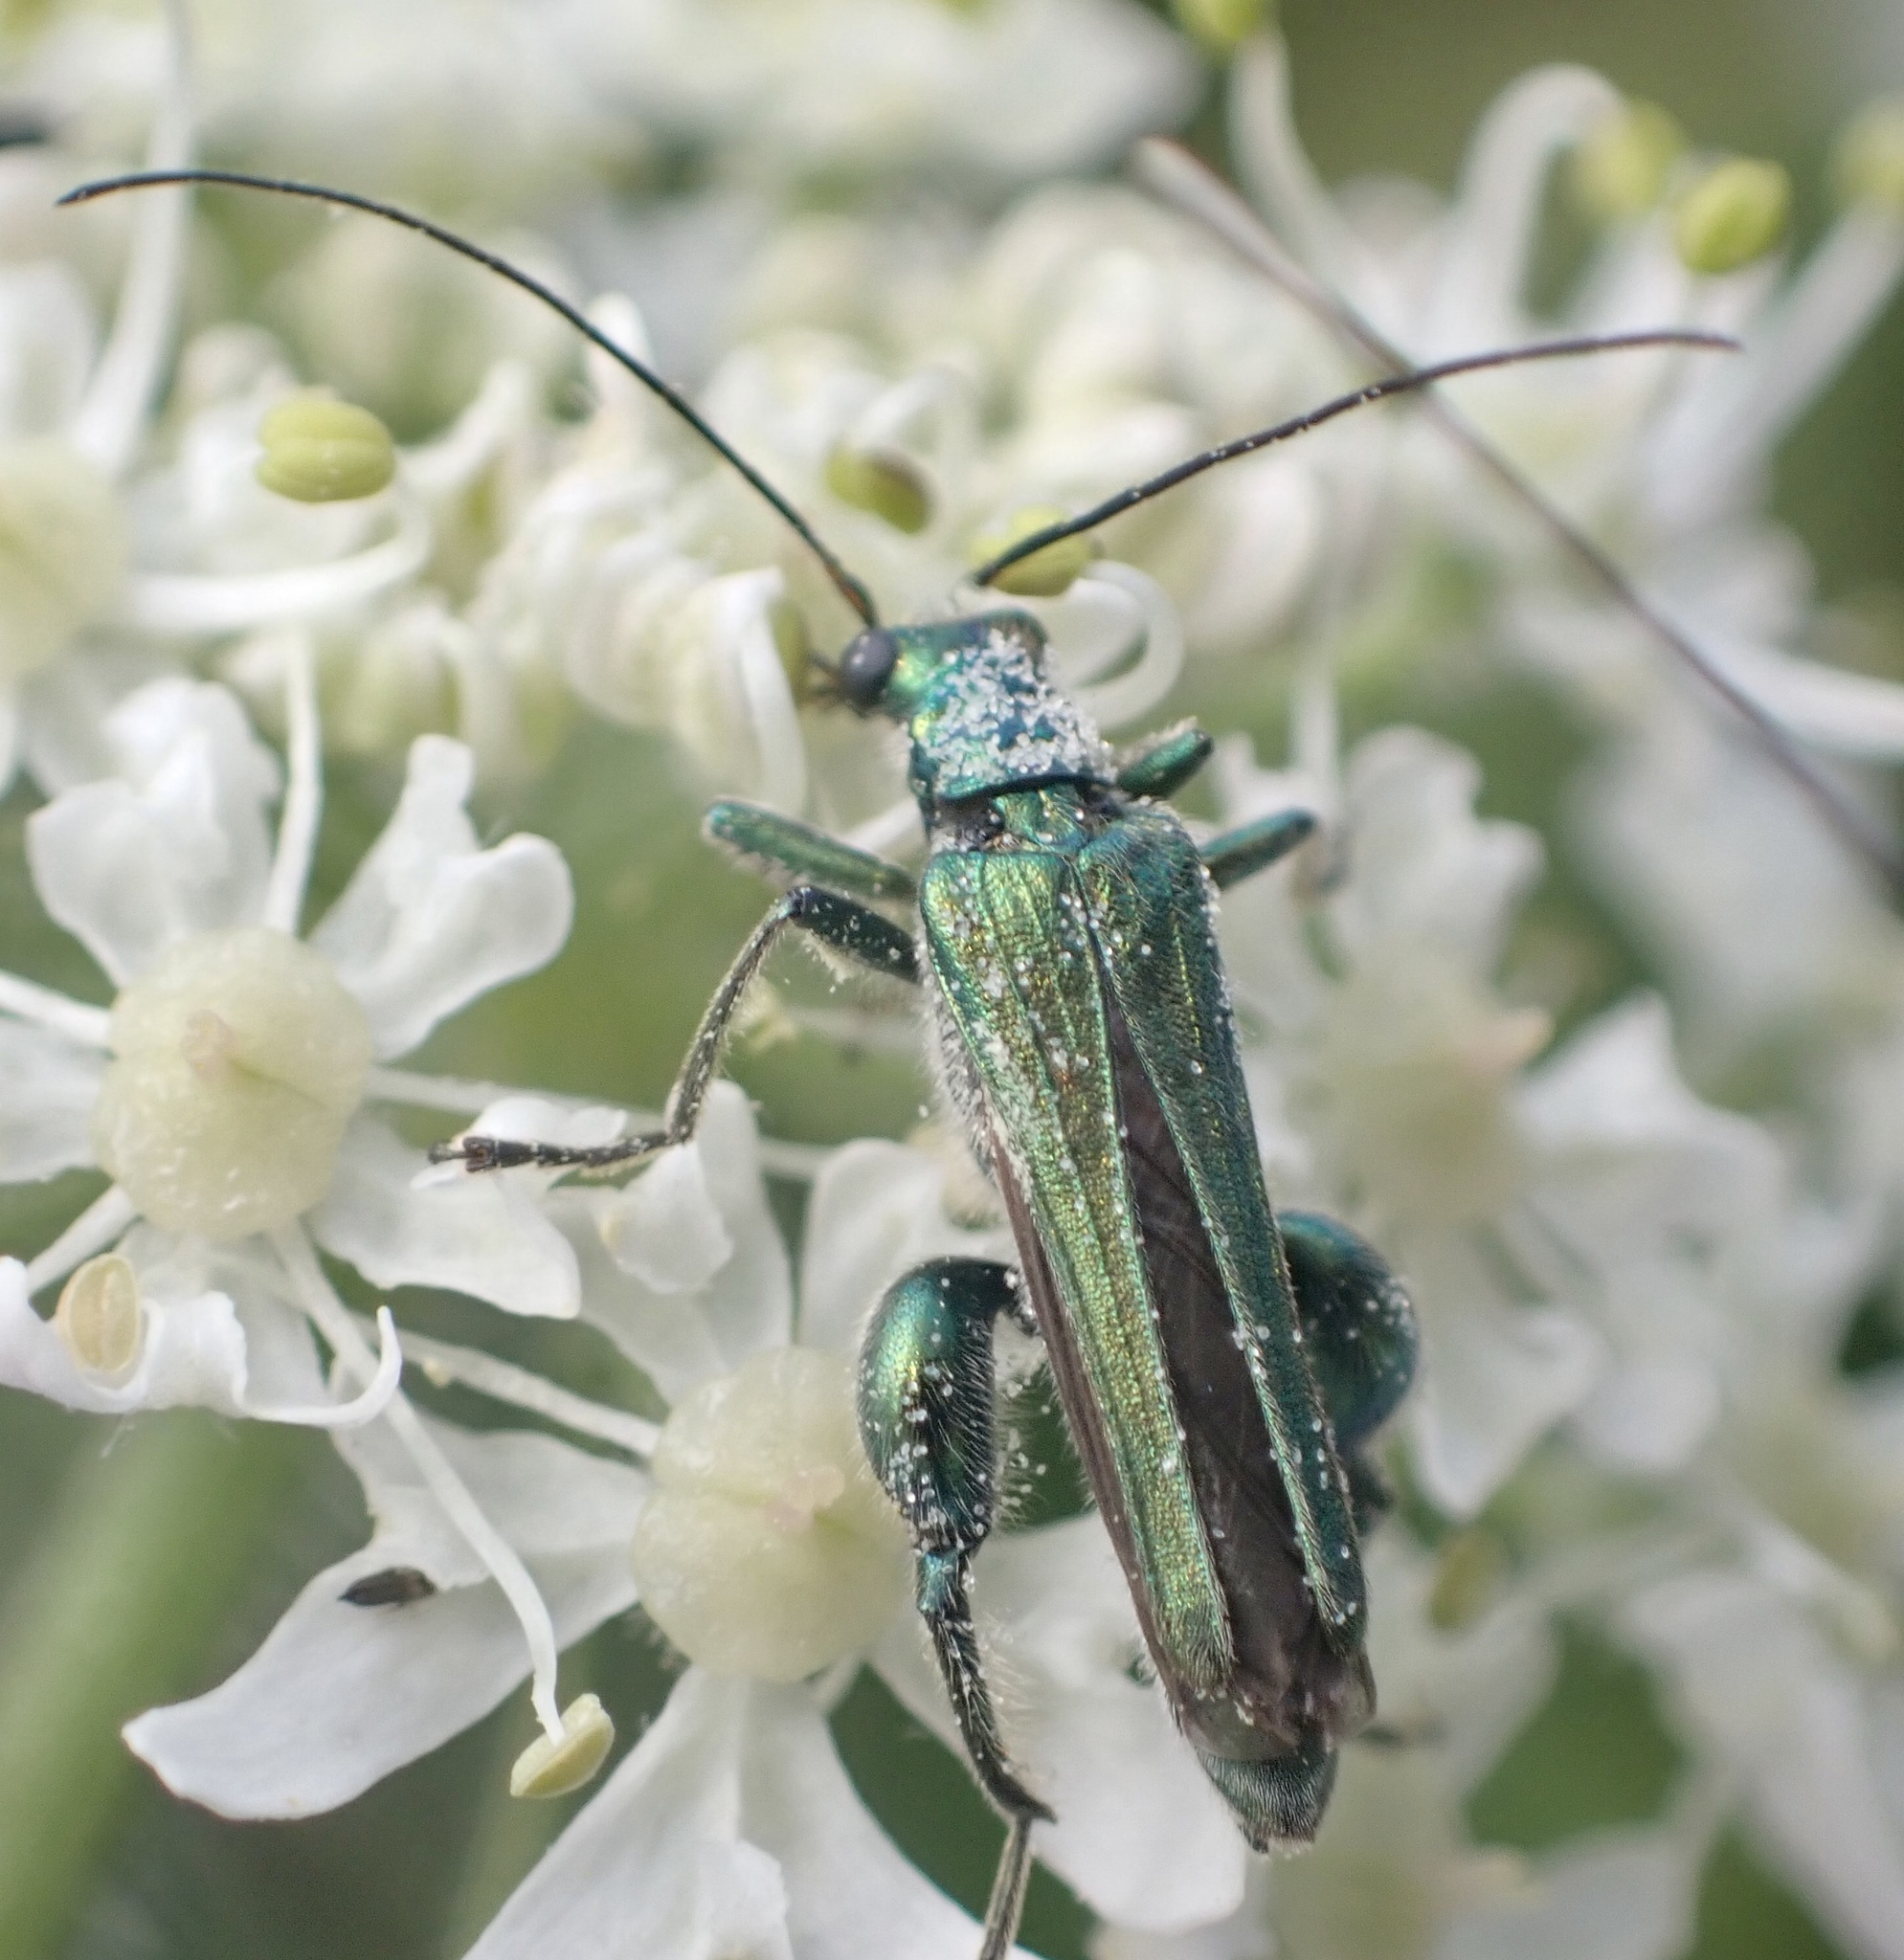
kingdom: Animalia
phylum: Arthropoda
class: Insecta
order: Coleoptera
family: Oedemeridae
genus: Oedemera
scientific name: Oedemera nobilis
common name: Swollen-thighed beetle
